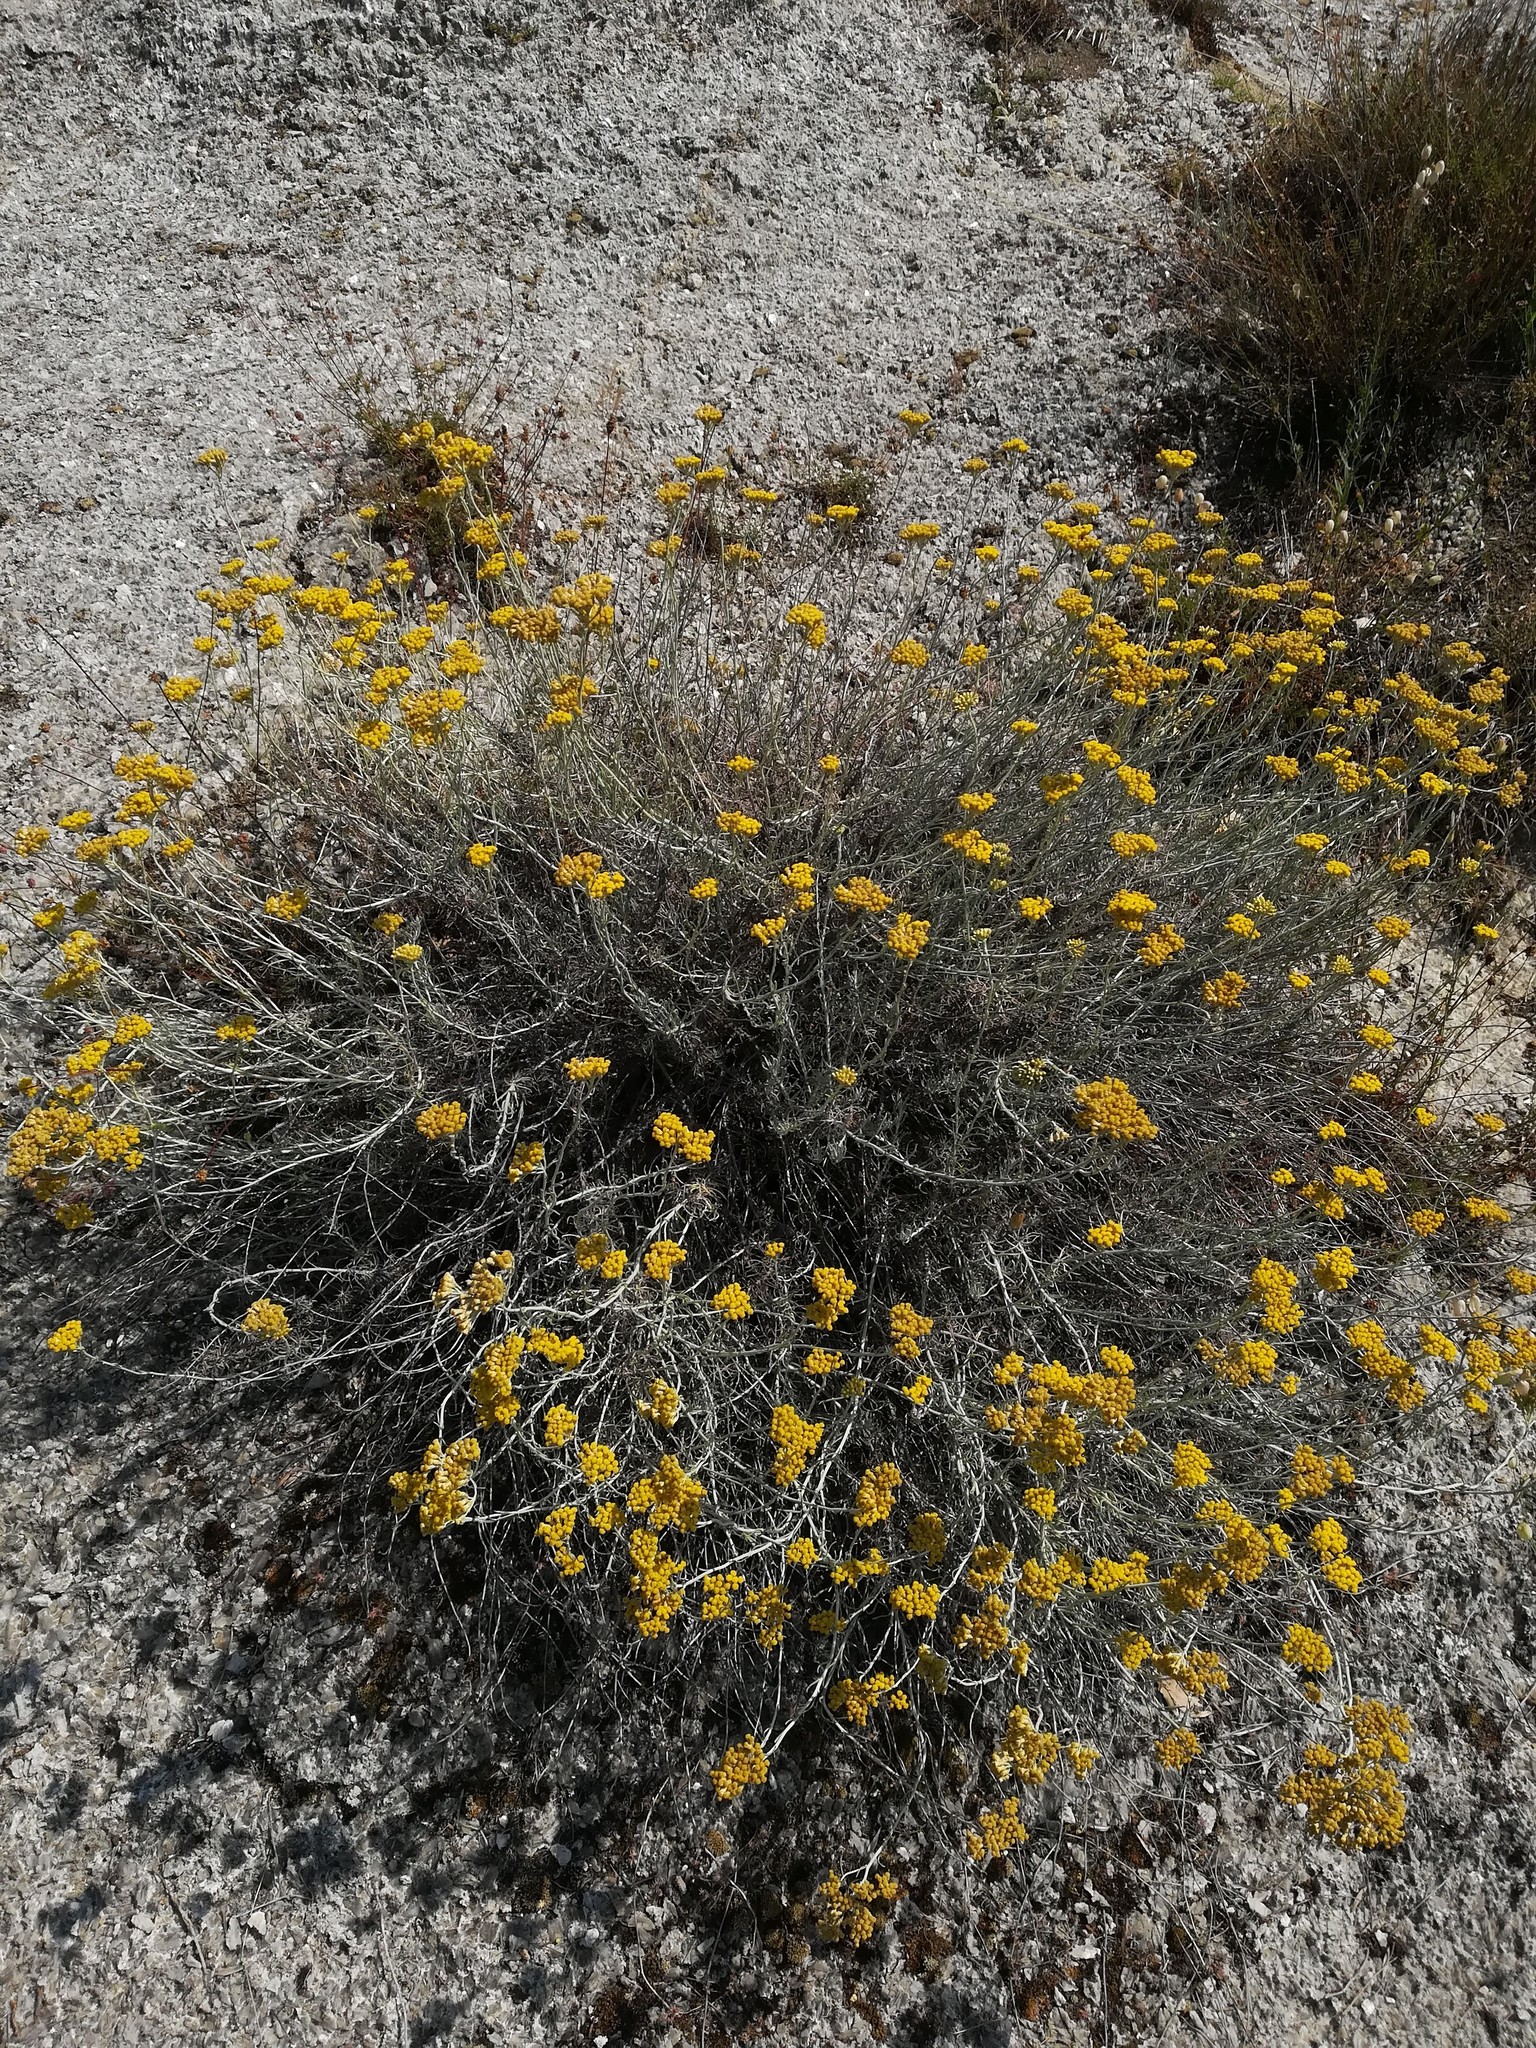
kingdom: Plantae
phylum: Tracheophyta
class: Magnoliopsida
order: Asterales
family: Asteraceae
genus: Helichrysum
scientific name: Helichrysum italicum
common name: Curryplant
